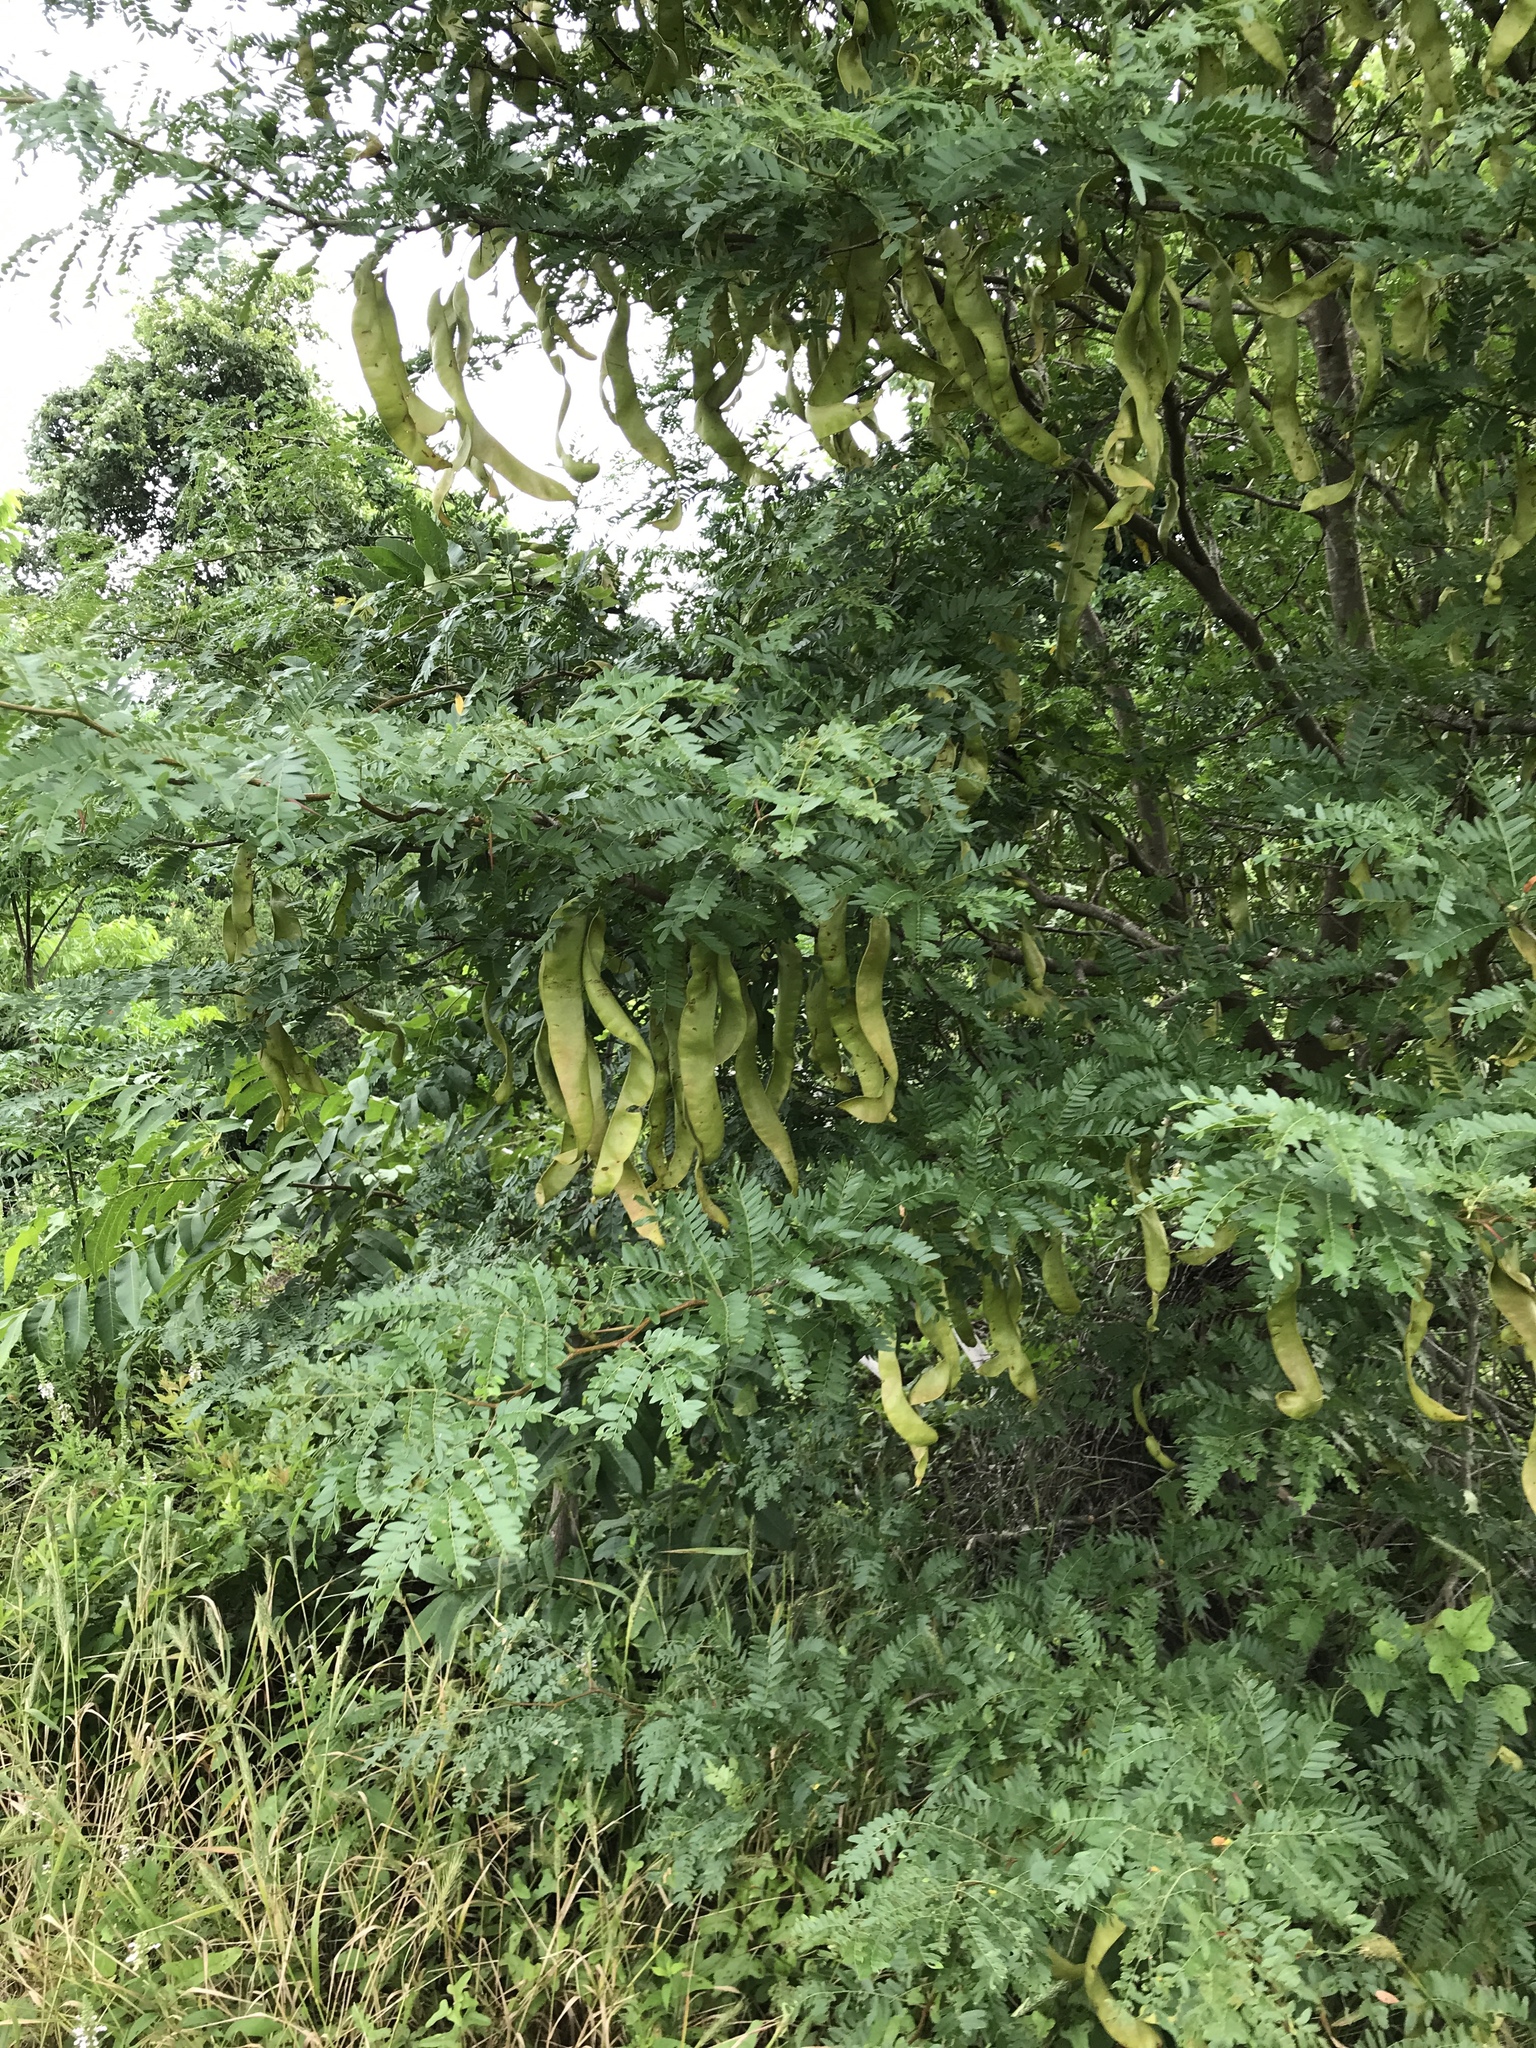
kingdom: Plantae
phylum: Tracheophyta
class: Magnoliopsida
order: Fabales
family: Fabaceae
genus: Gleditsia
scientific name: Gleditsia triacanthos
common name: Common honeylocust
